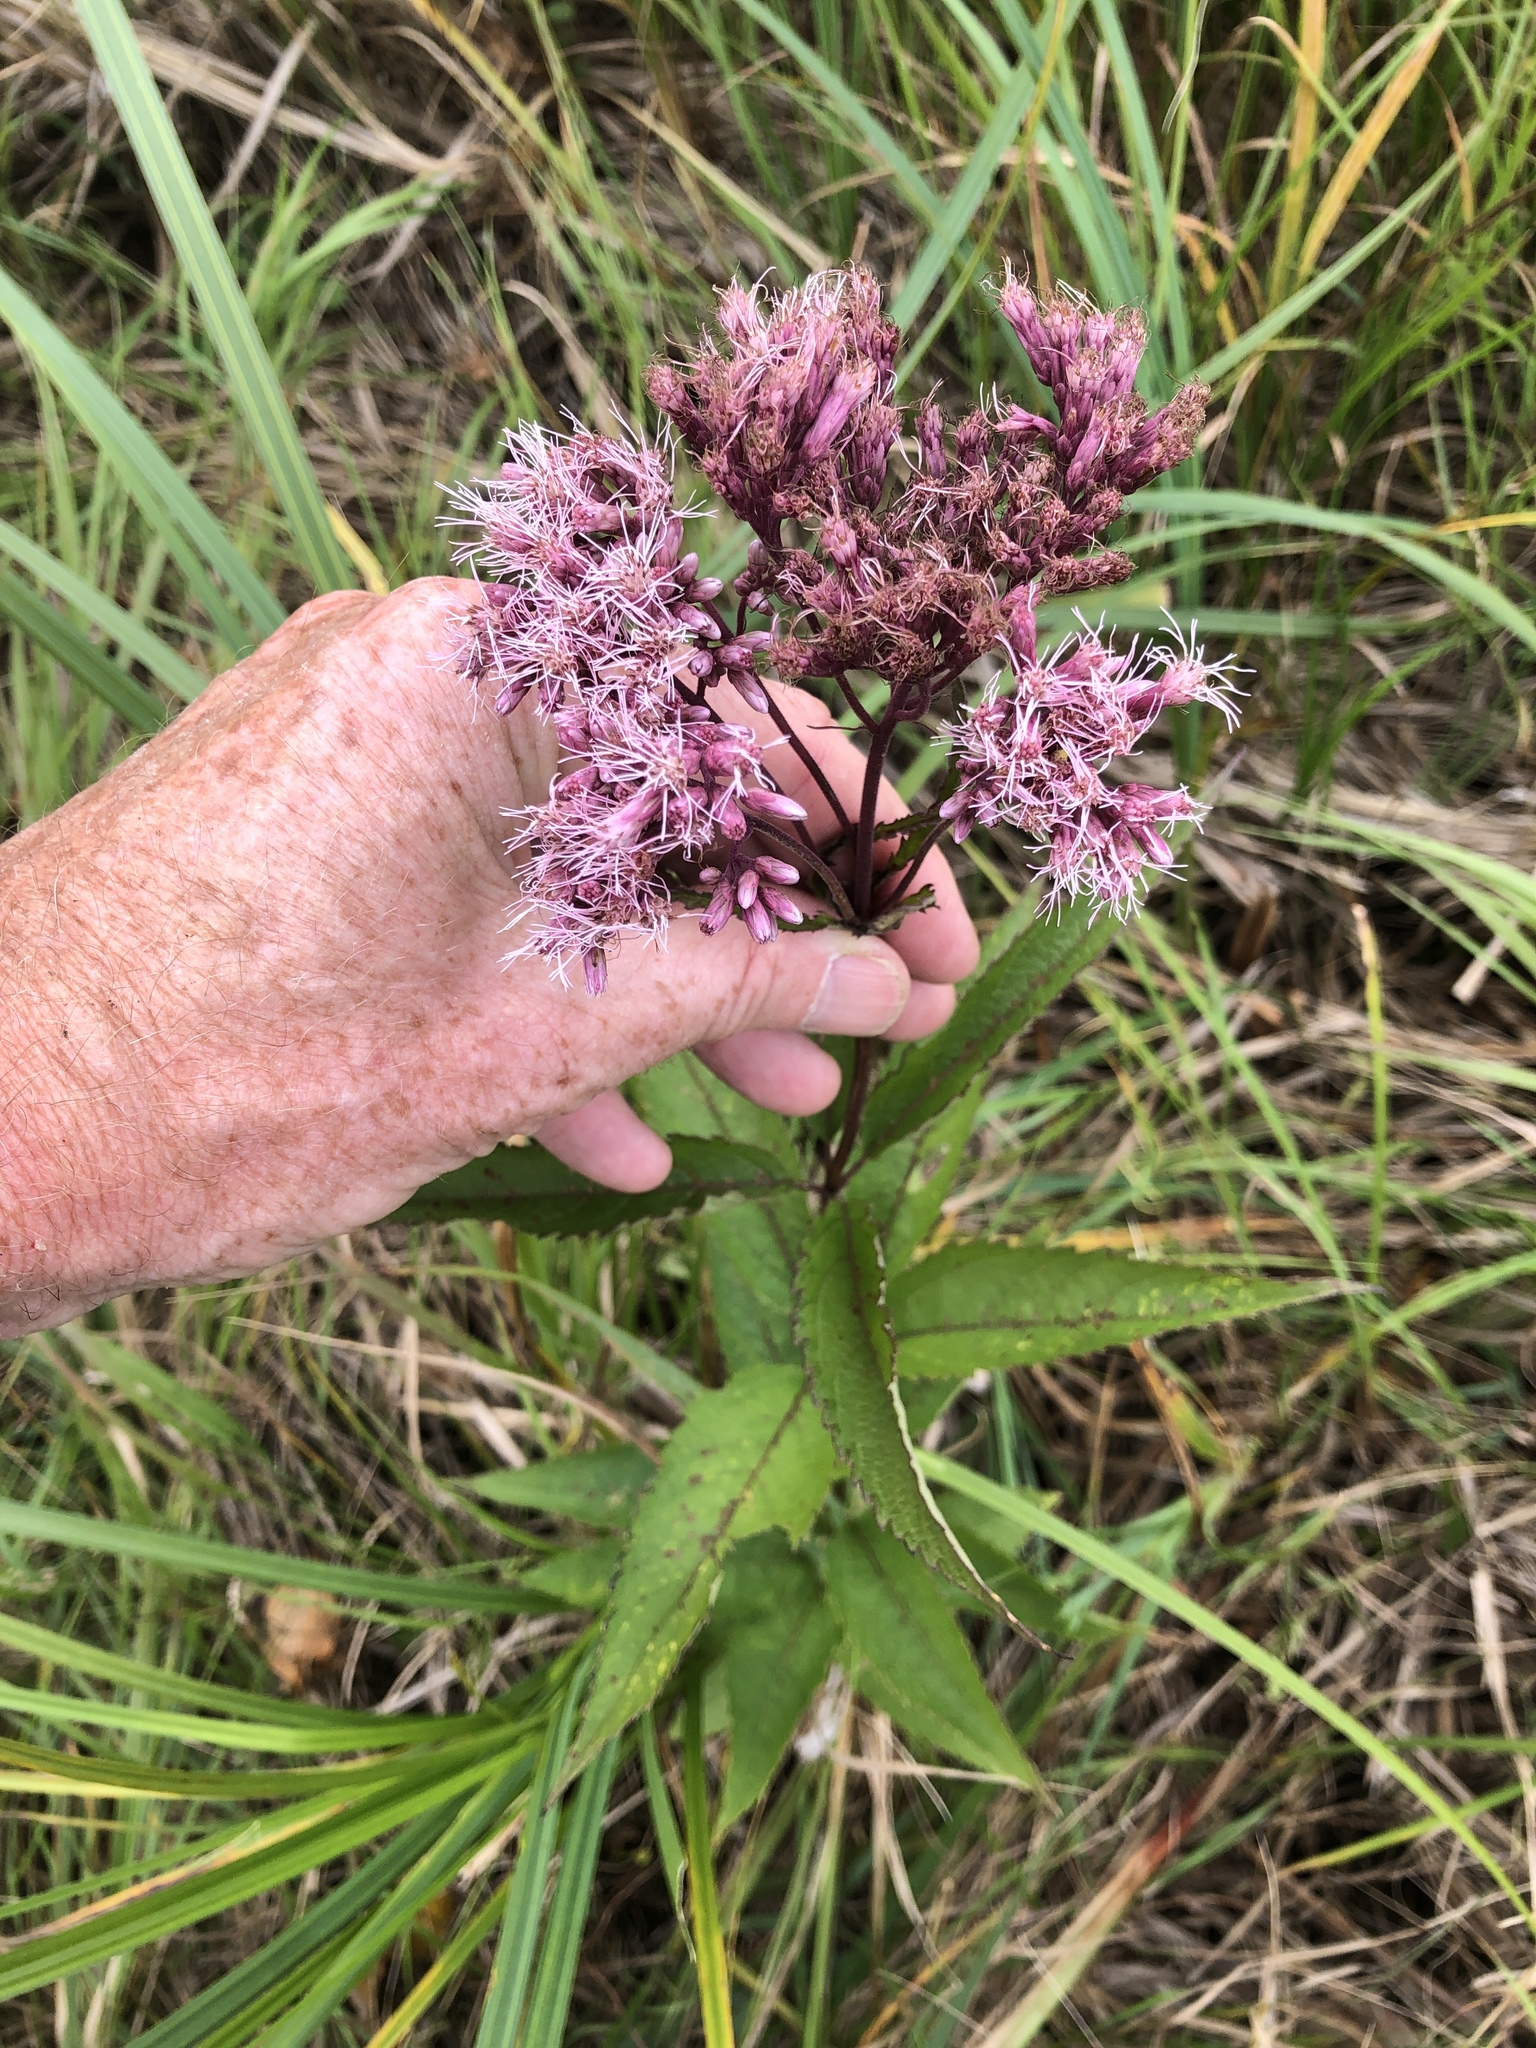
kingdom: Plantae
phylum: Tracheophyta
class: Magnoliopsida
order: Asterales
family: Asteraceae
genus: Eutrochium
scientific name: Eutrochium maculatum
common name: Spotted joe pye weed
